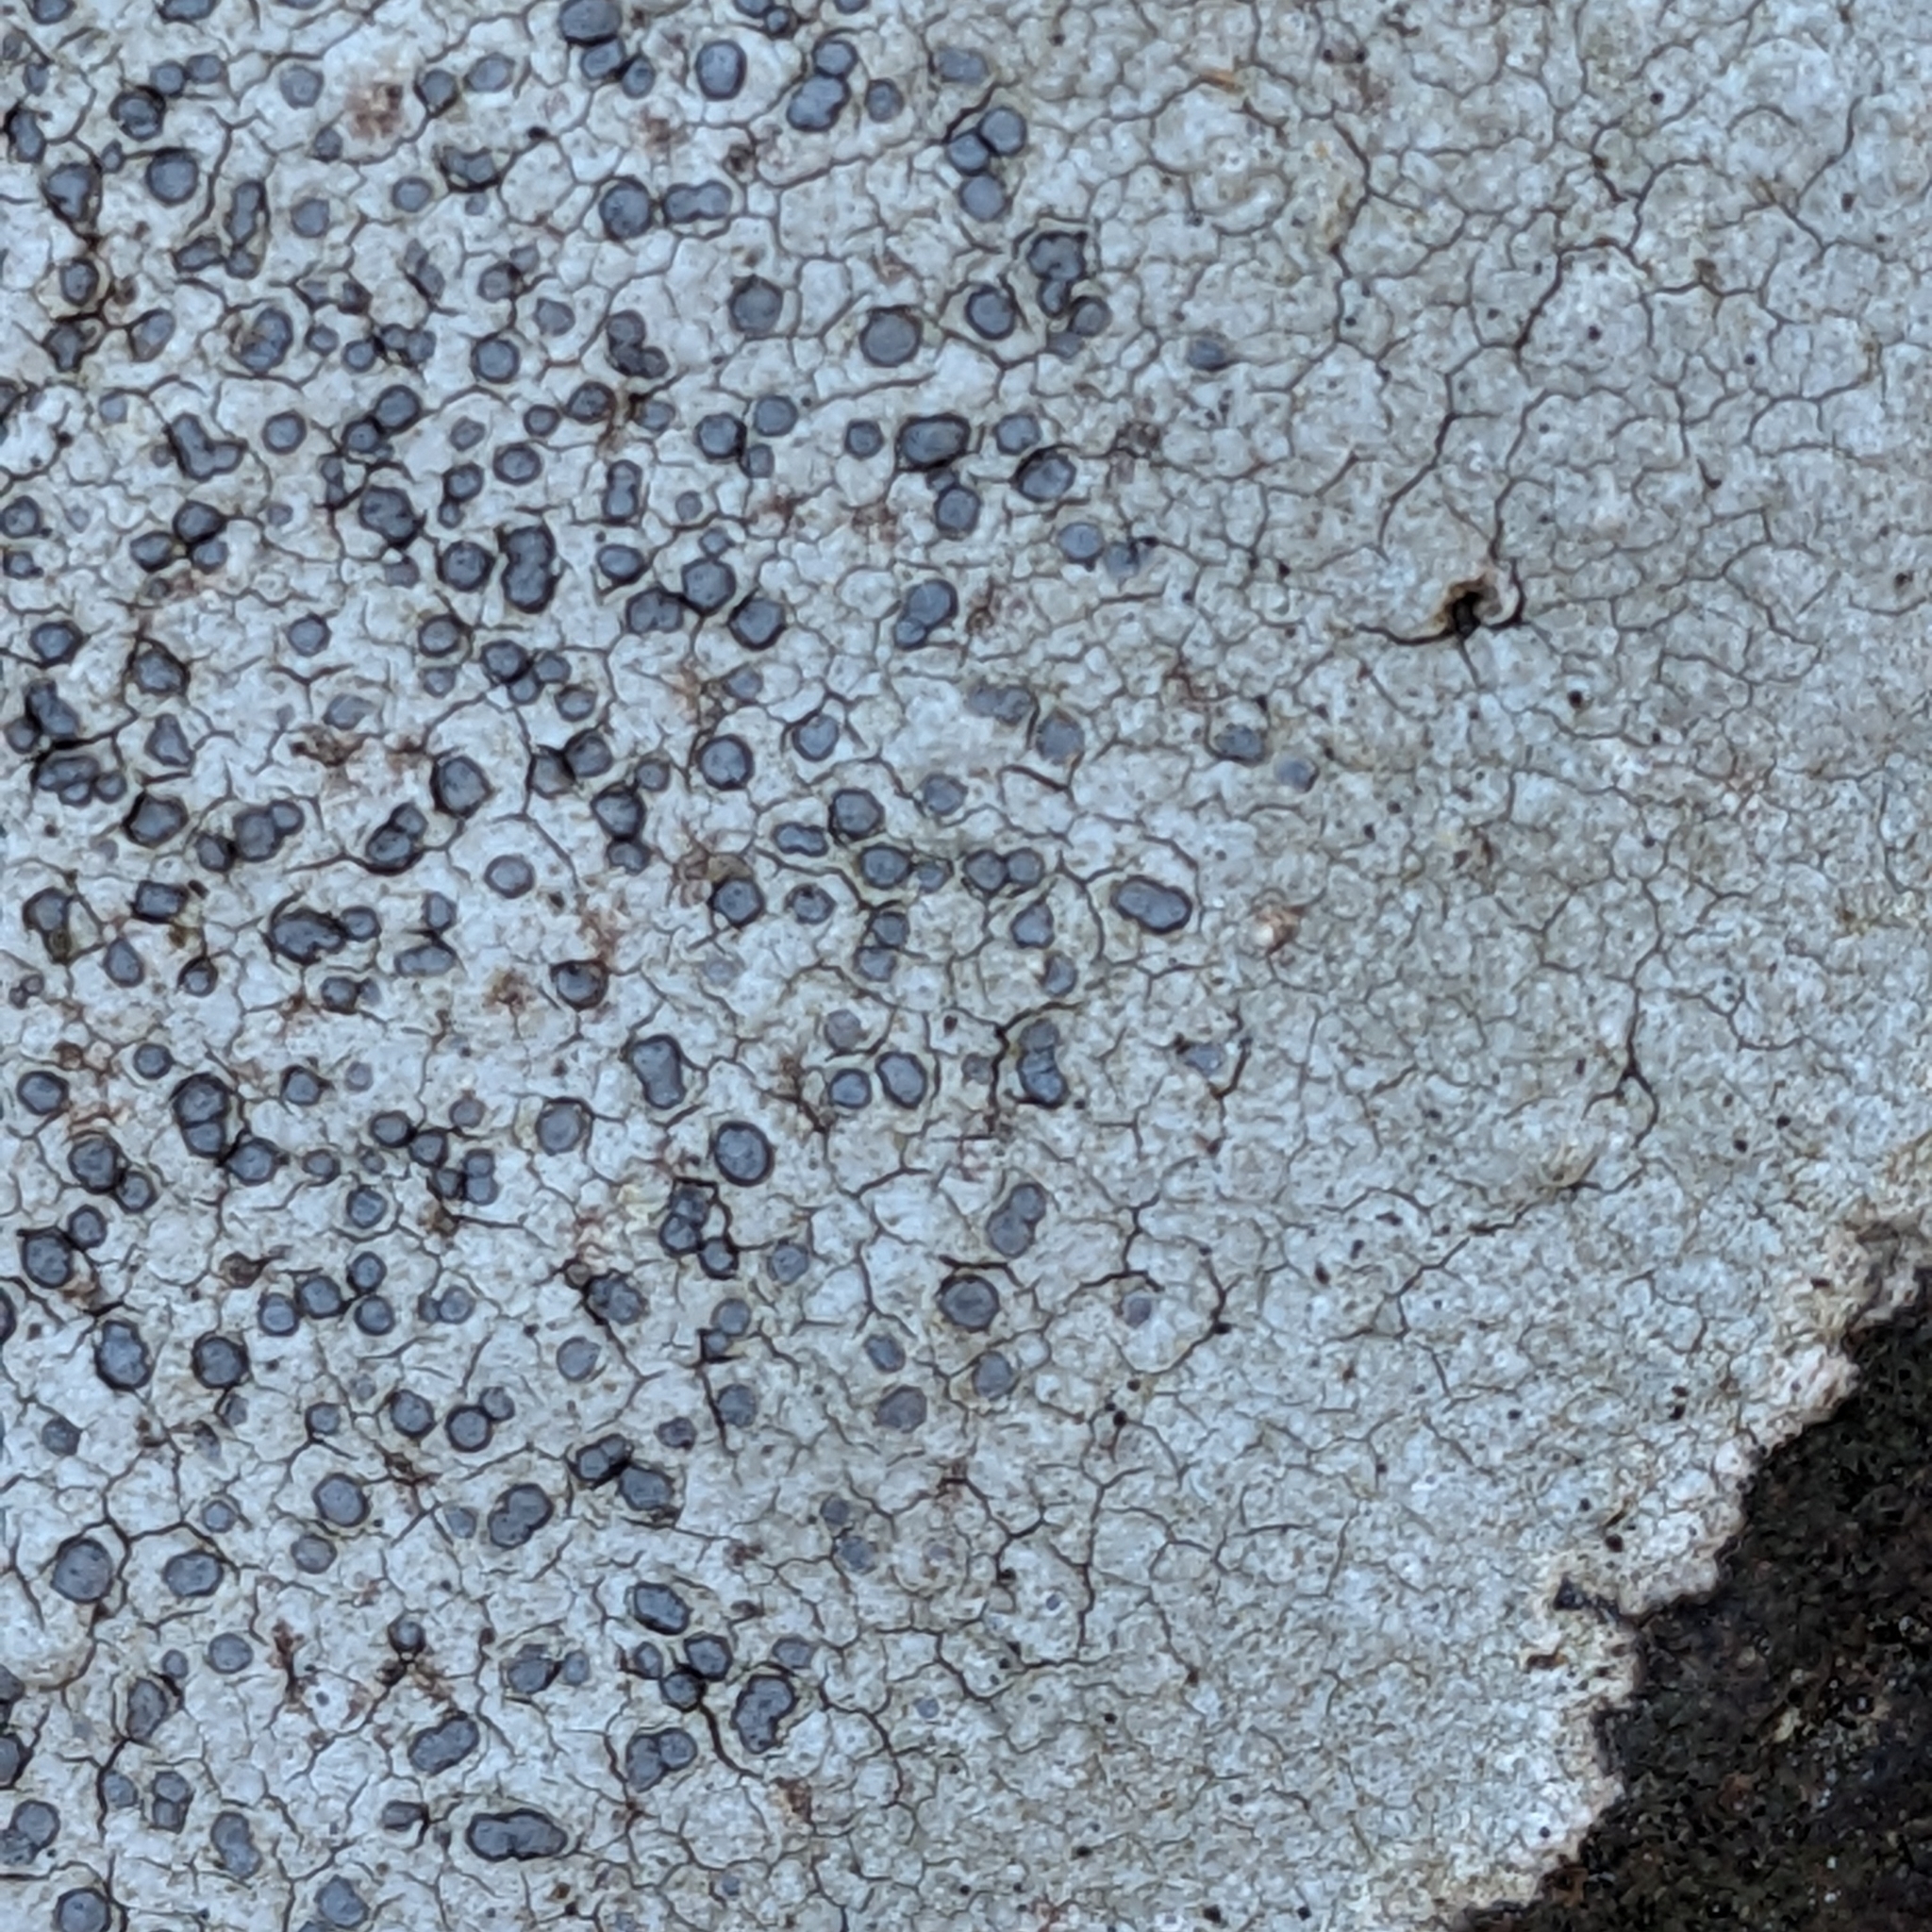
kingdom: Fungi
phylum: Ascomycota
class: Lecanoromycetes
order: Lecideales
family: Lecideaceae
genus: Porpidia
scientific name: Porpidia albocaerulescens
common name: Smokey-eyed boulder lichen
